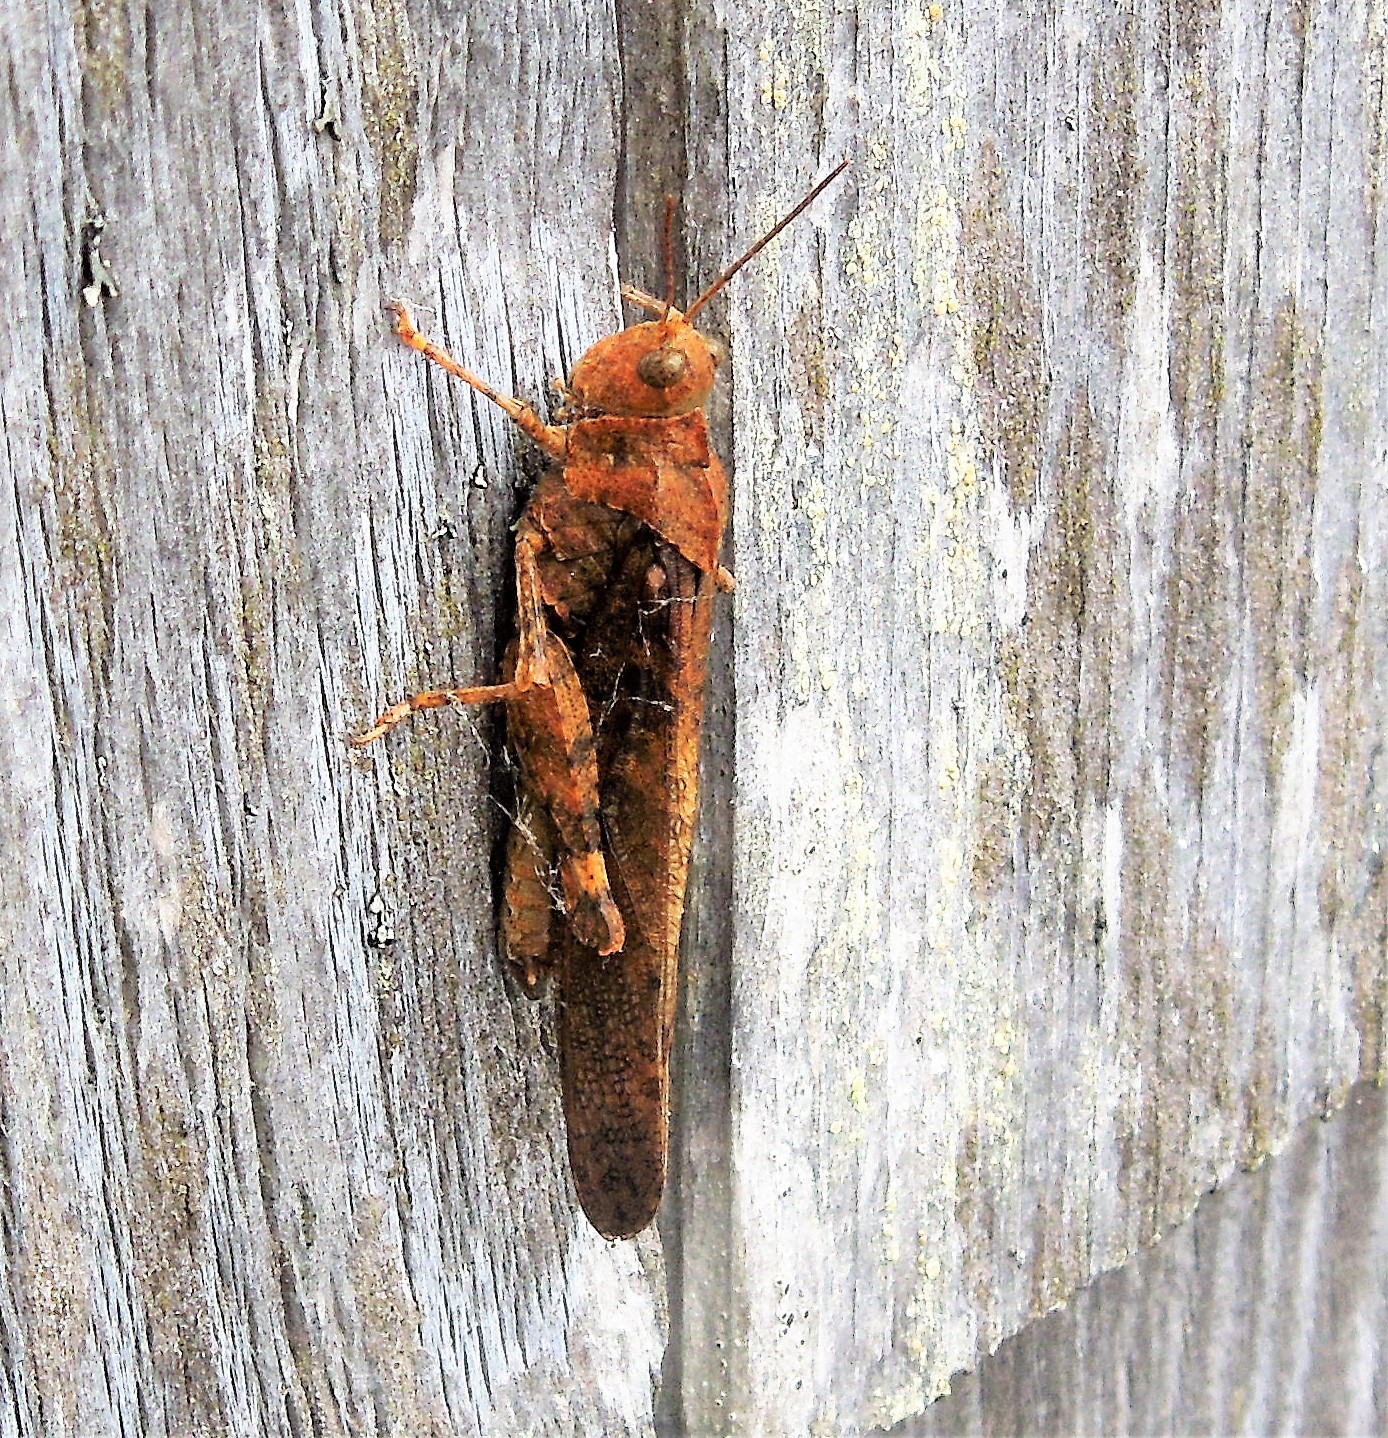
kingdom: Animalia
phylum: Arthropoda
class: Insecta
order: Orthoptera
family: Acrididae
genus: Dissosteira
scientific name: Dissosteira carolina
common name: Carolina grasshopper
